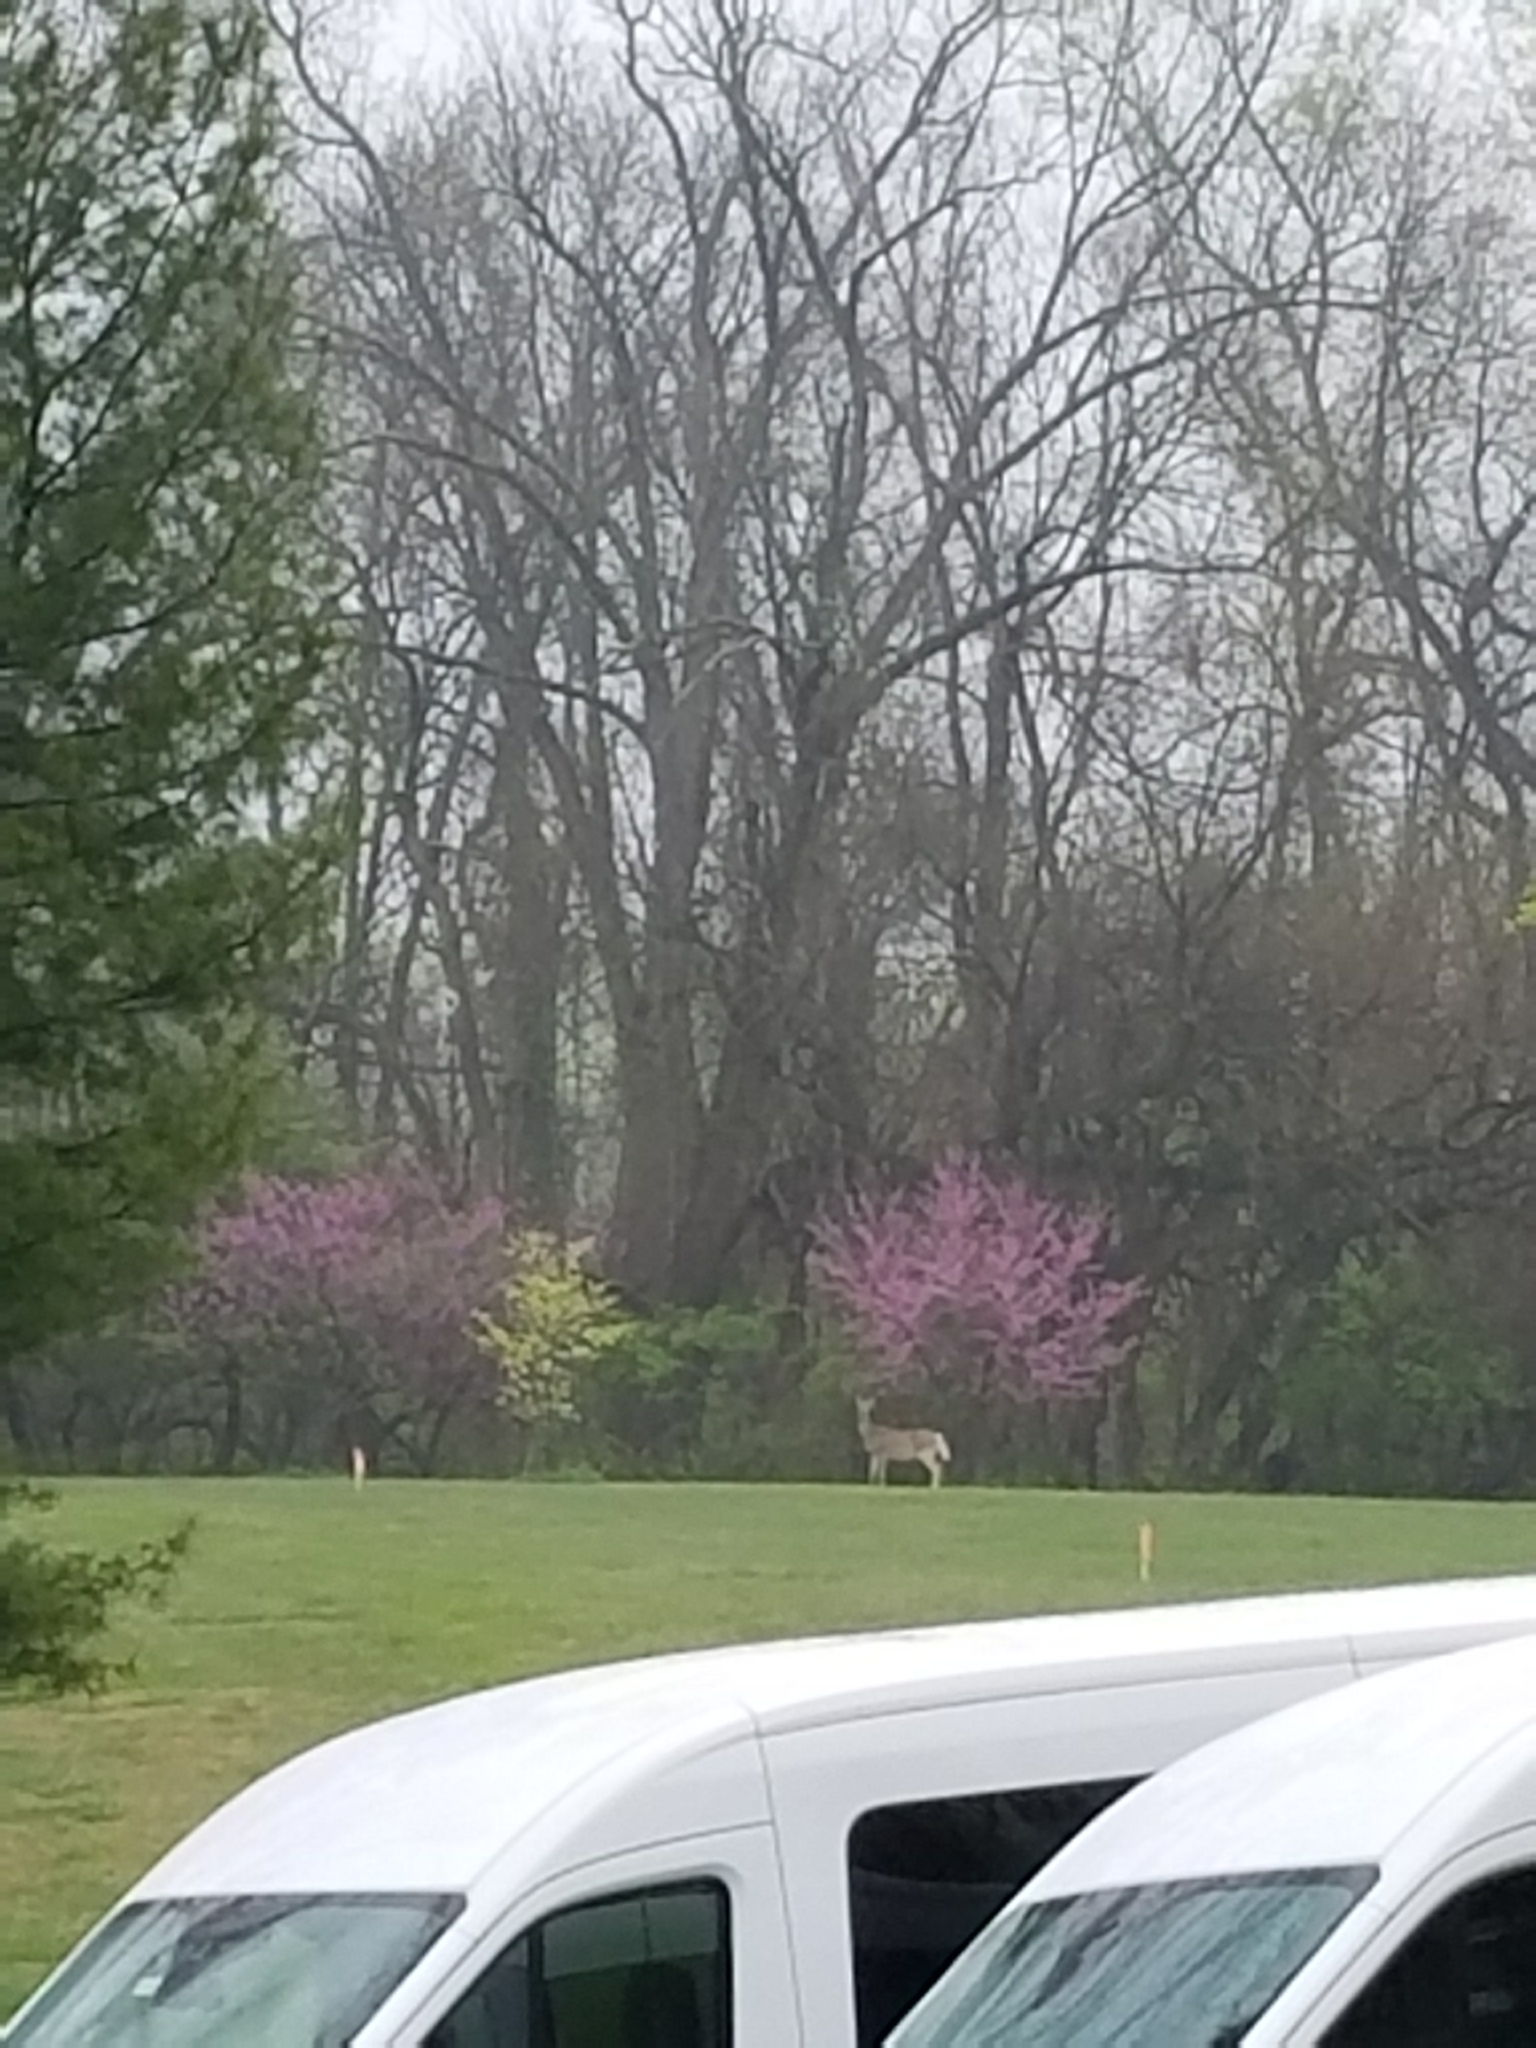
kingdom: Animalia
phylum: Chordata
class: Mammalia
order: Artiodactyla
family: Cervidae
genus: Odocoileus
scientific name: Odocoileus virginianus
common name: White-tailed deer
